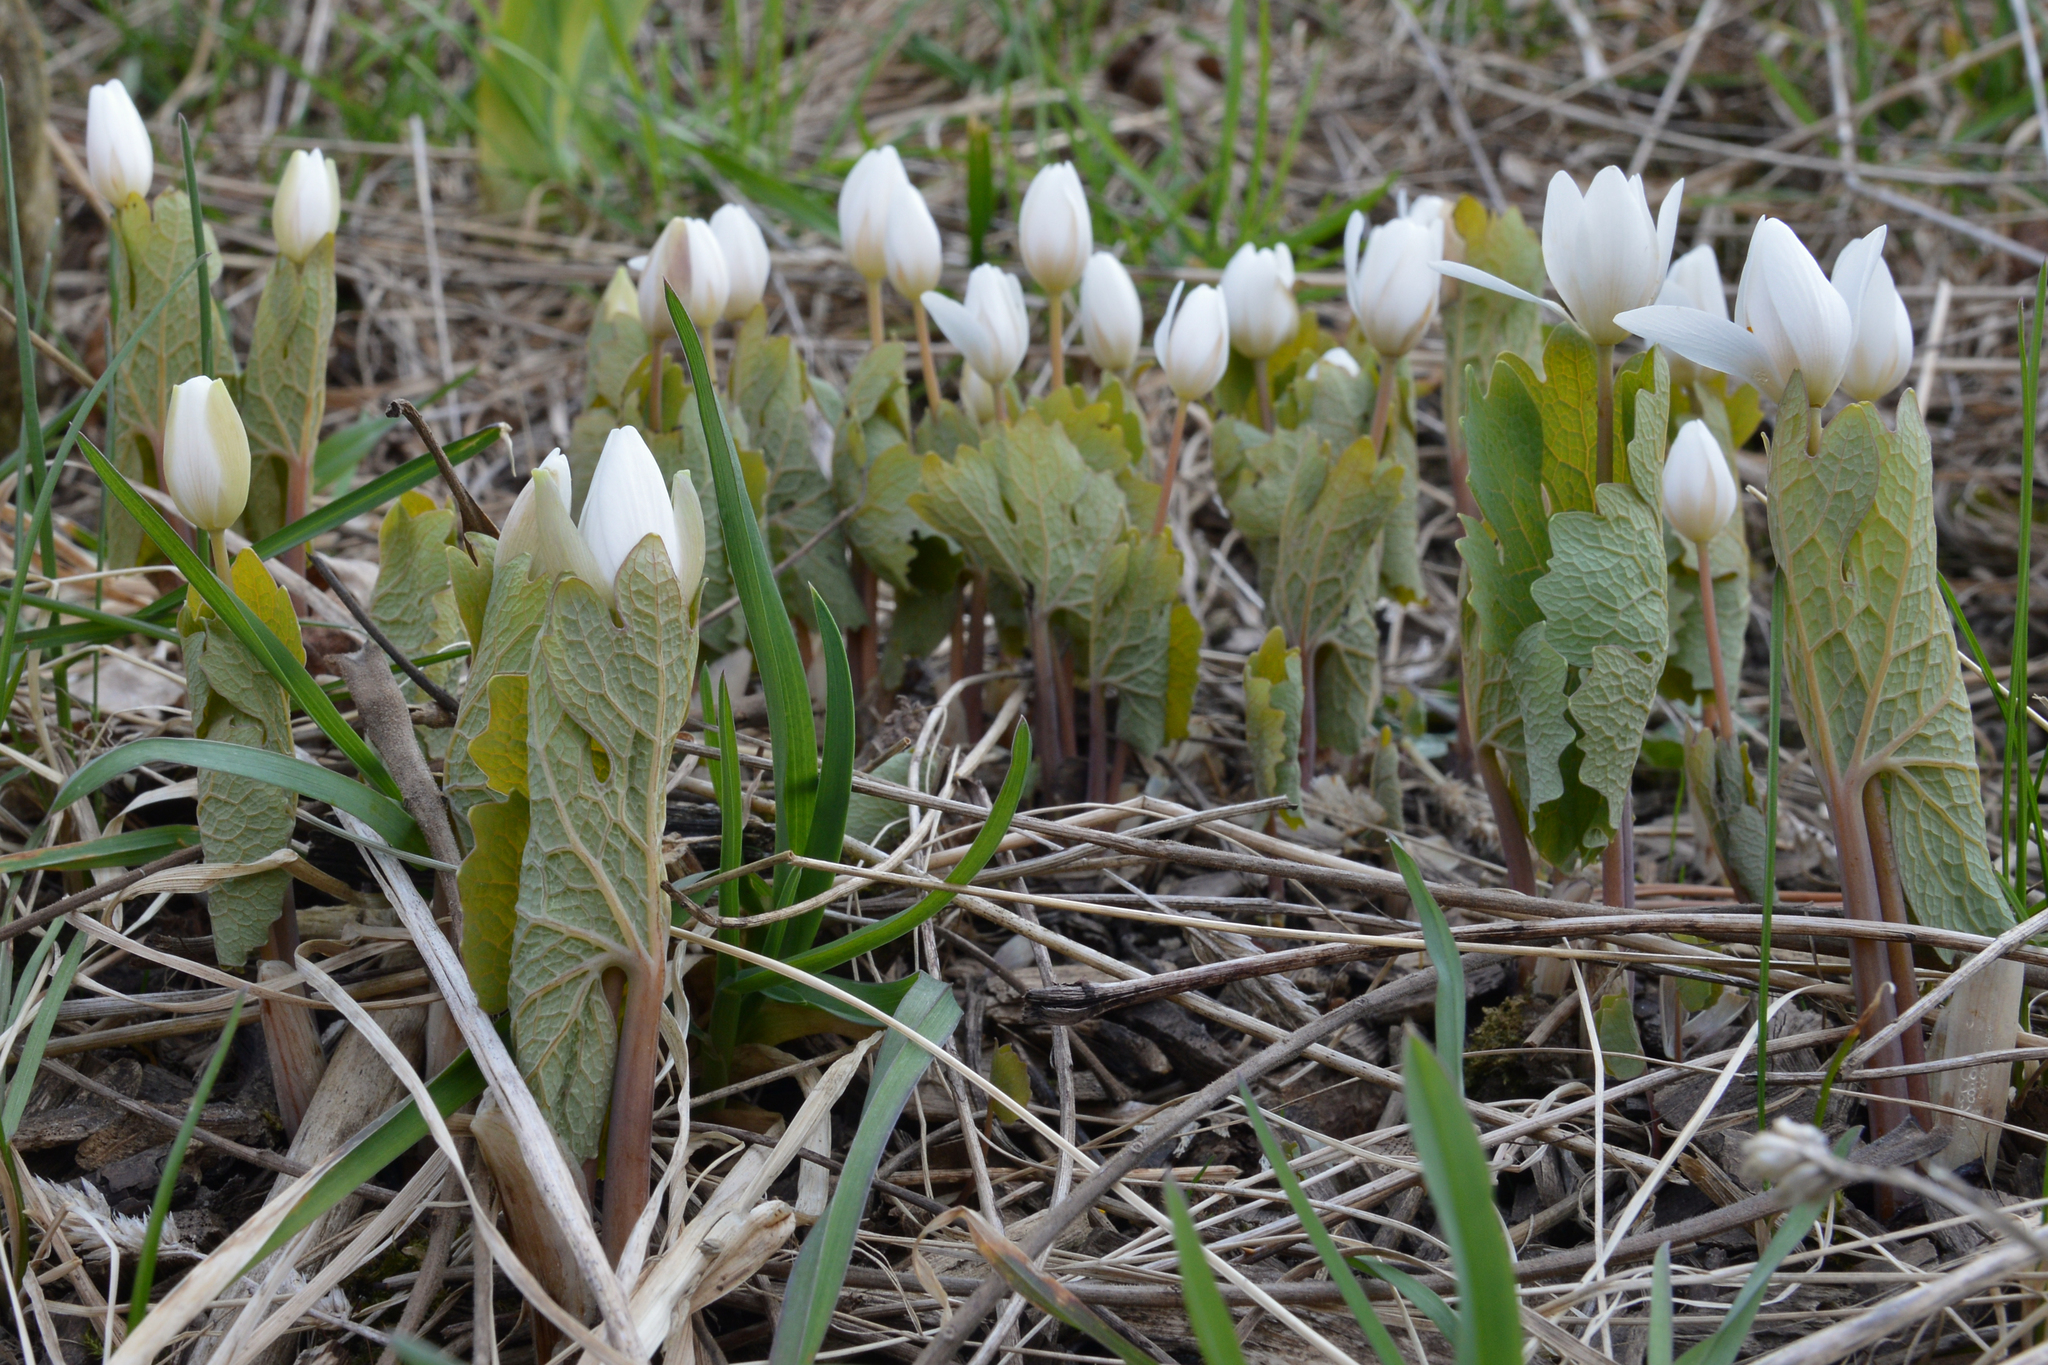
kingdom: Plantae
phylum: Tracheophyta
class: Magnoliopsida
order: Ranunculales
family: Papaveraceae
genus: Sanguinaria
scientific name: Sanguinaria canadensis
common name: Bloodroot
